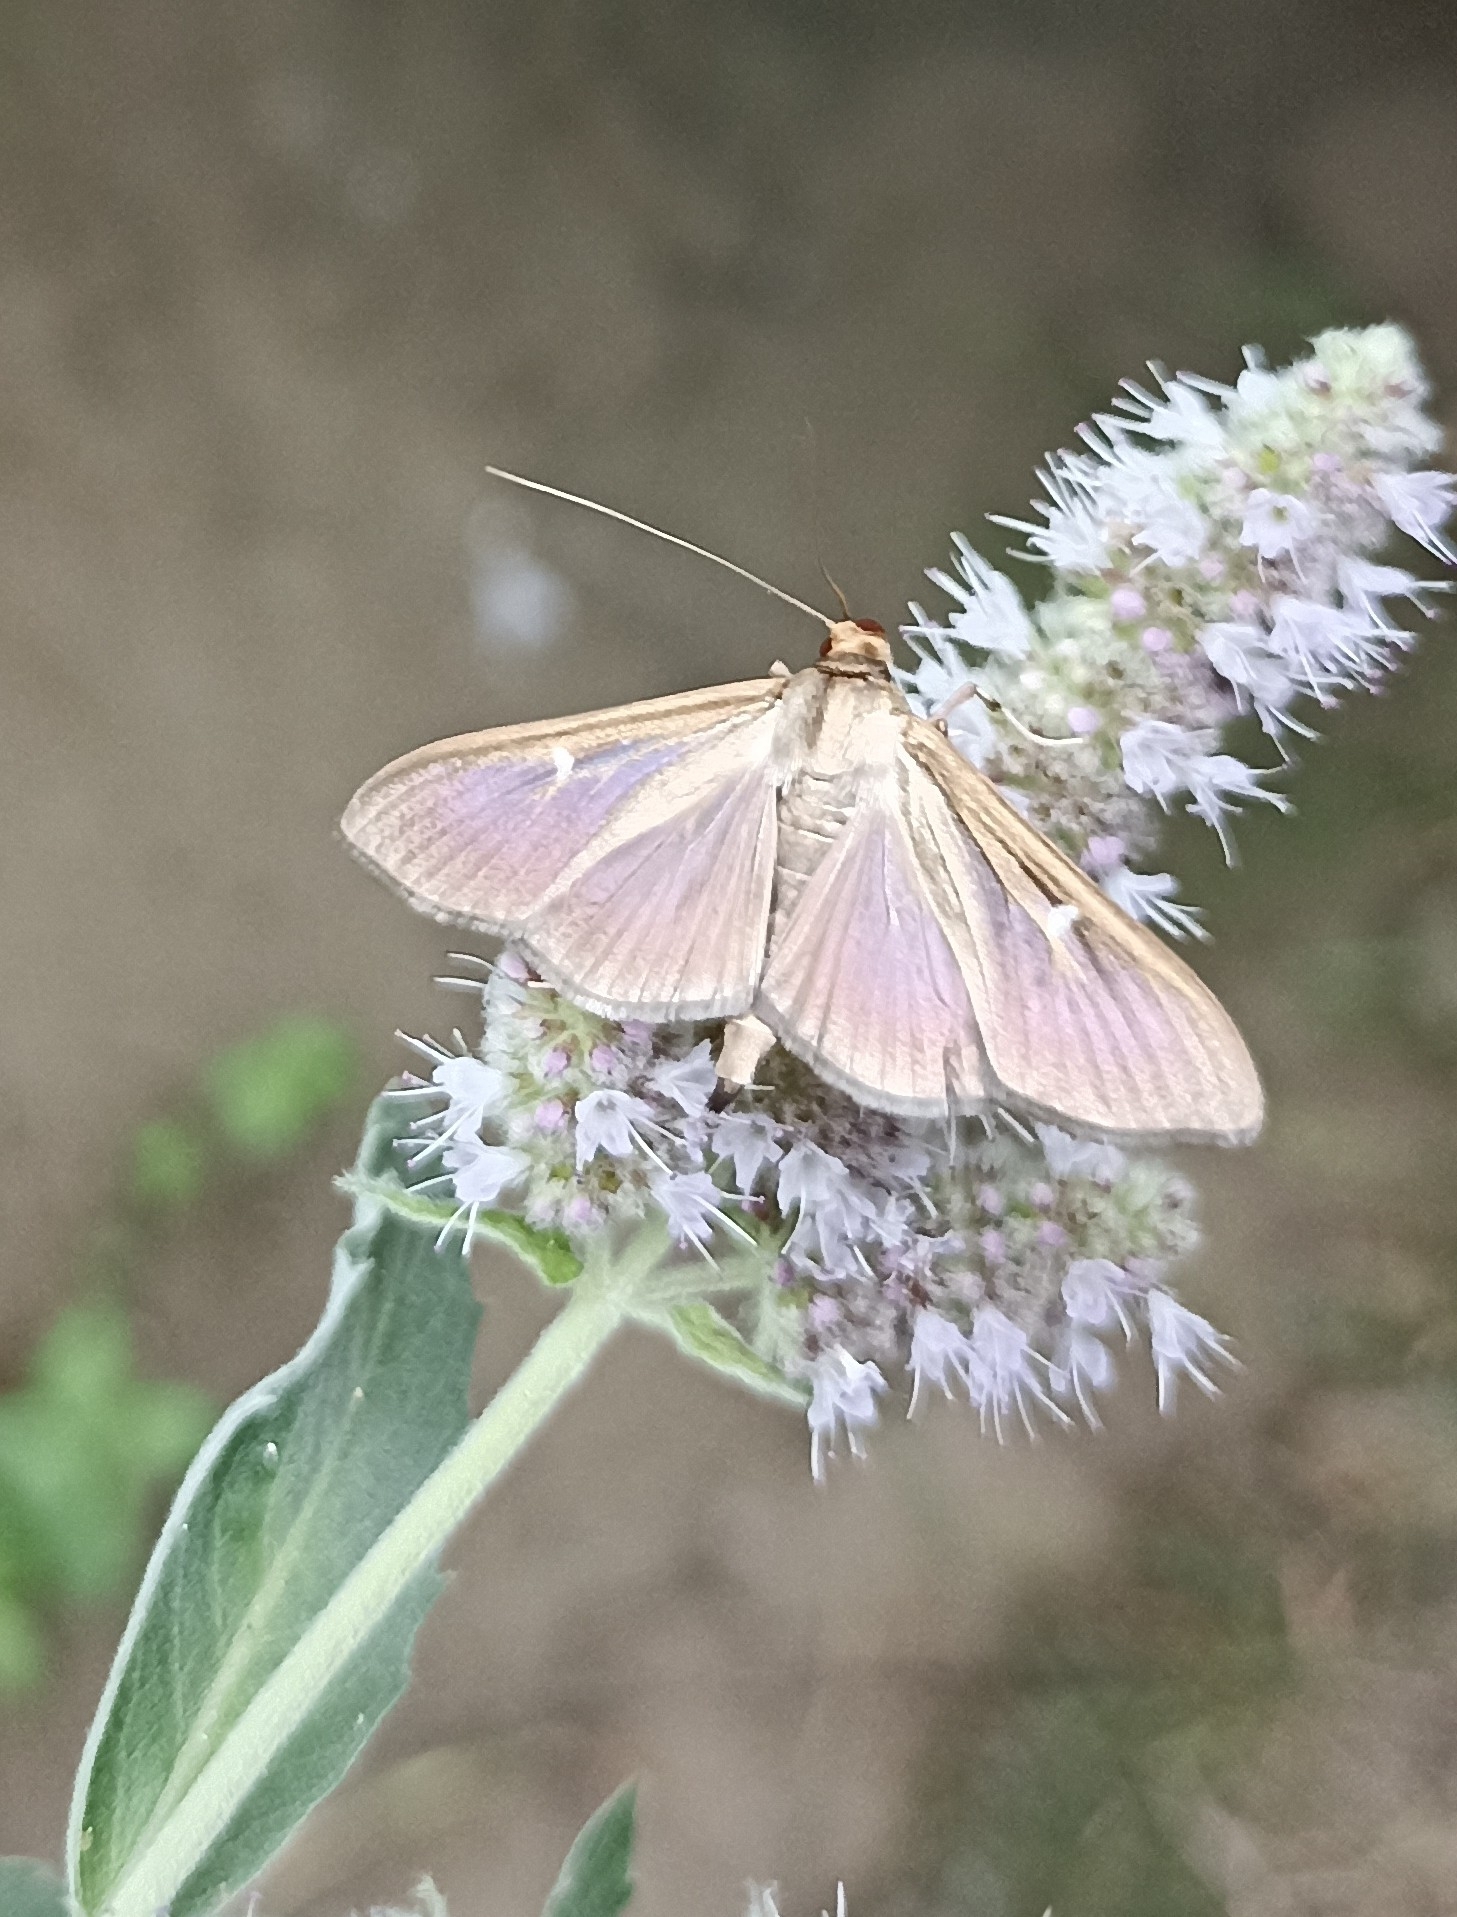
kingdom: Animalia
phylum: Arthropoda
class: Insecta
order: Lepidoptera
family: Crambidae
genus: Cydalima
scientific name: Cydalima perspectalis
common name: Box tree moth
